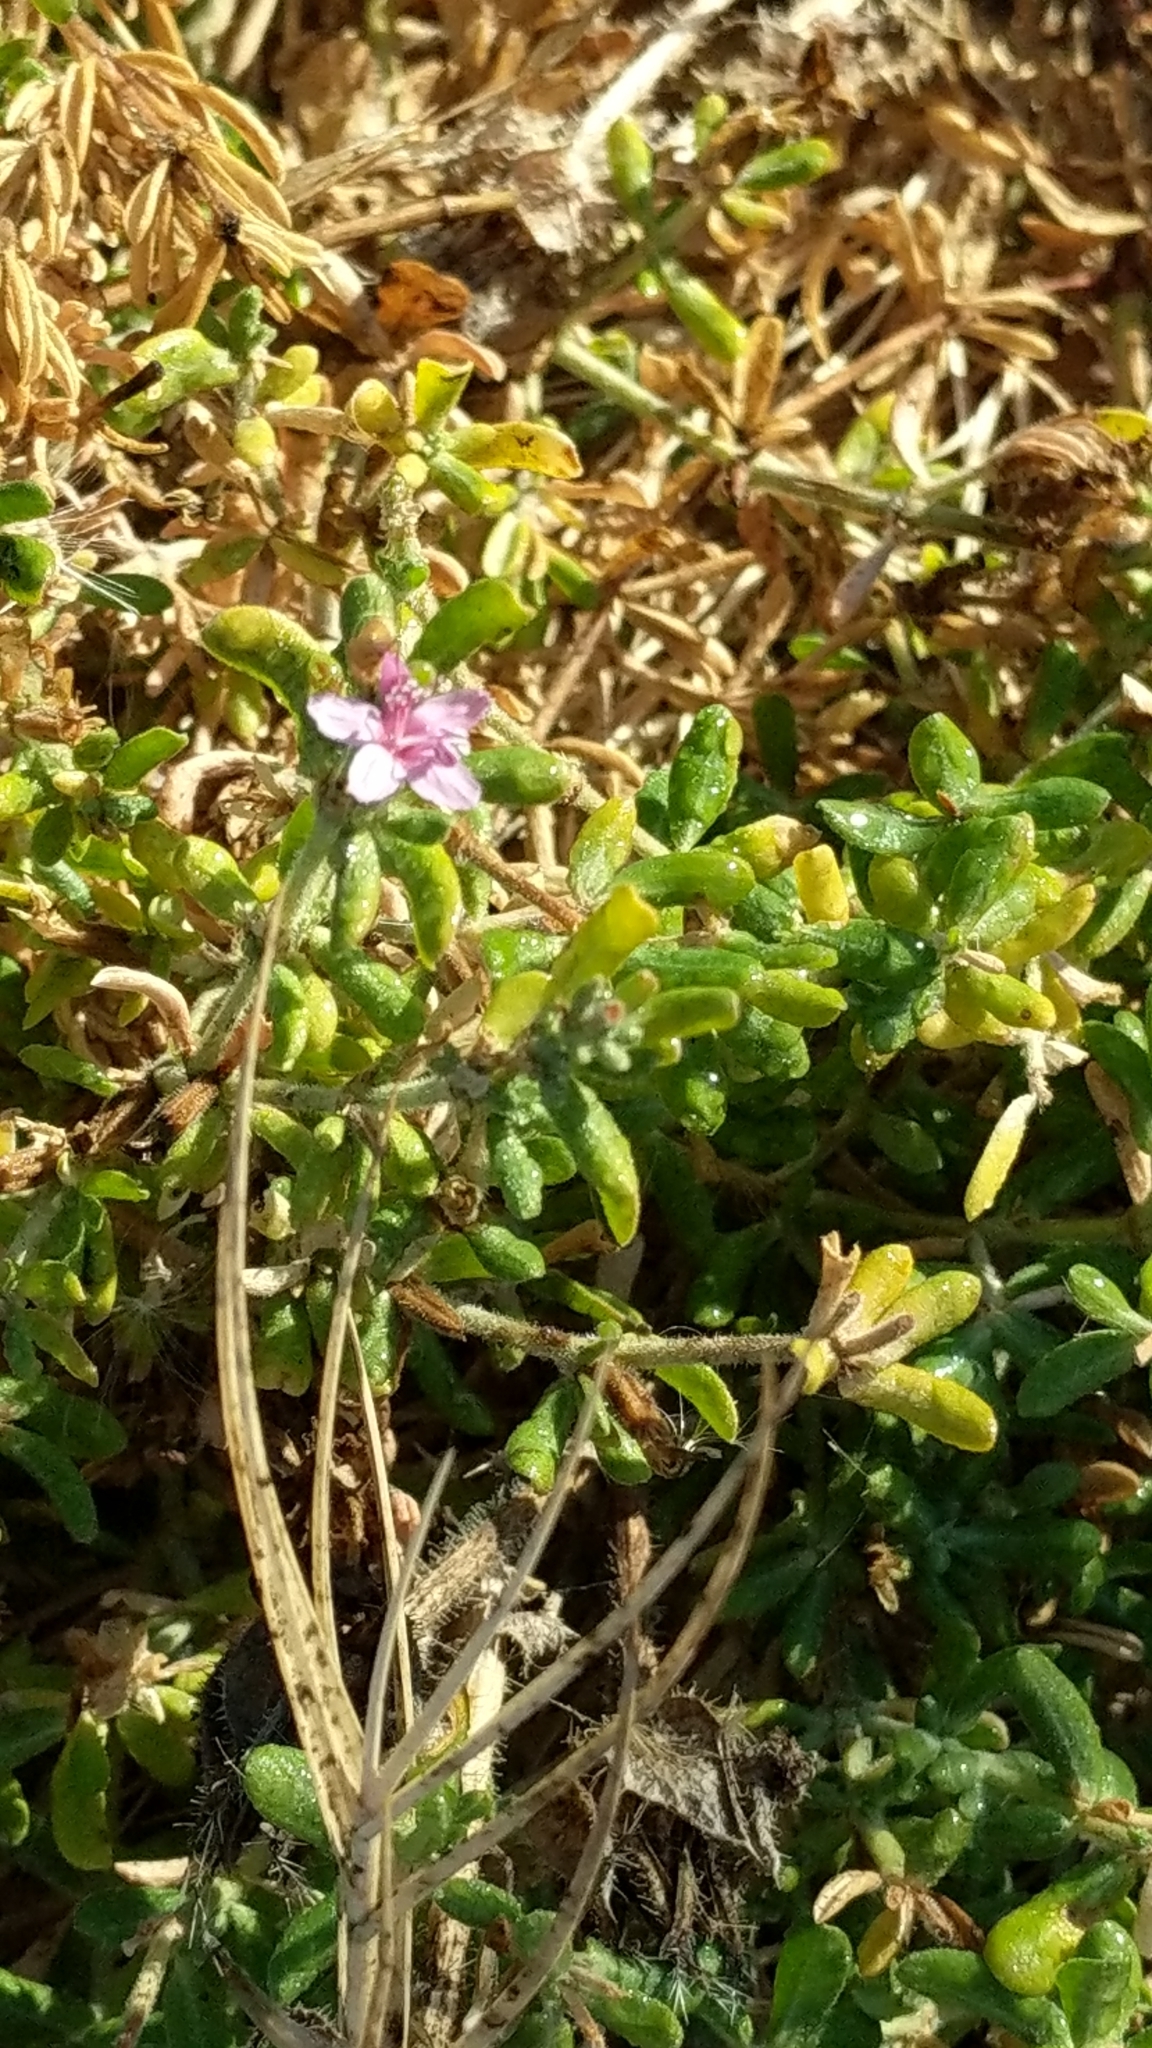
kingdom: Plantae
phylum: Tracheophyta
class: Magnoliopsida
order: Caryophyllales
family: Frankeniaceae
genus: Frankenia
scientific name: Frankenia salina
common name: Alkali seaheath
